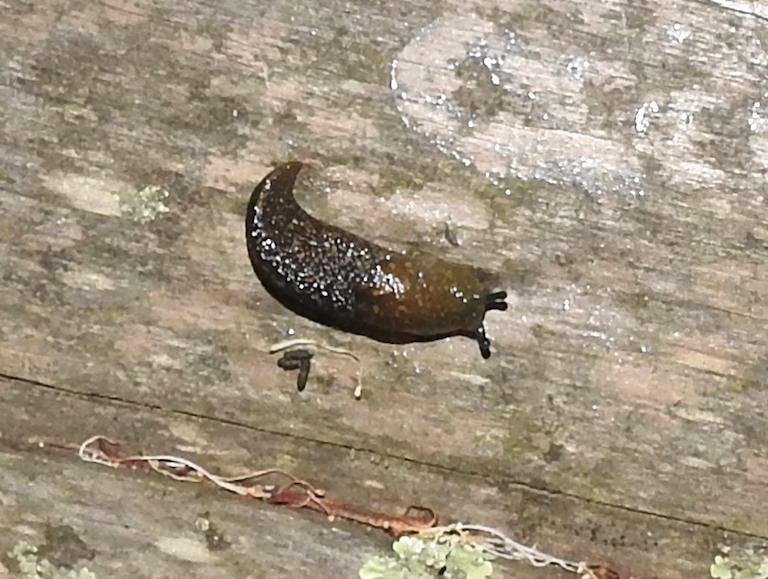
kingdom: Animalia
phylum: Mollusca
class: Gastropoda
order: Stylommatophora
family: Limacidae
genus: Limacus
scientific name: Limacus flavus
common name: Yellow gardenslug
